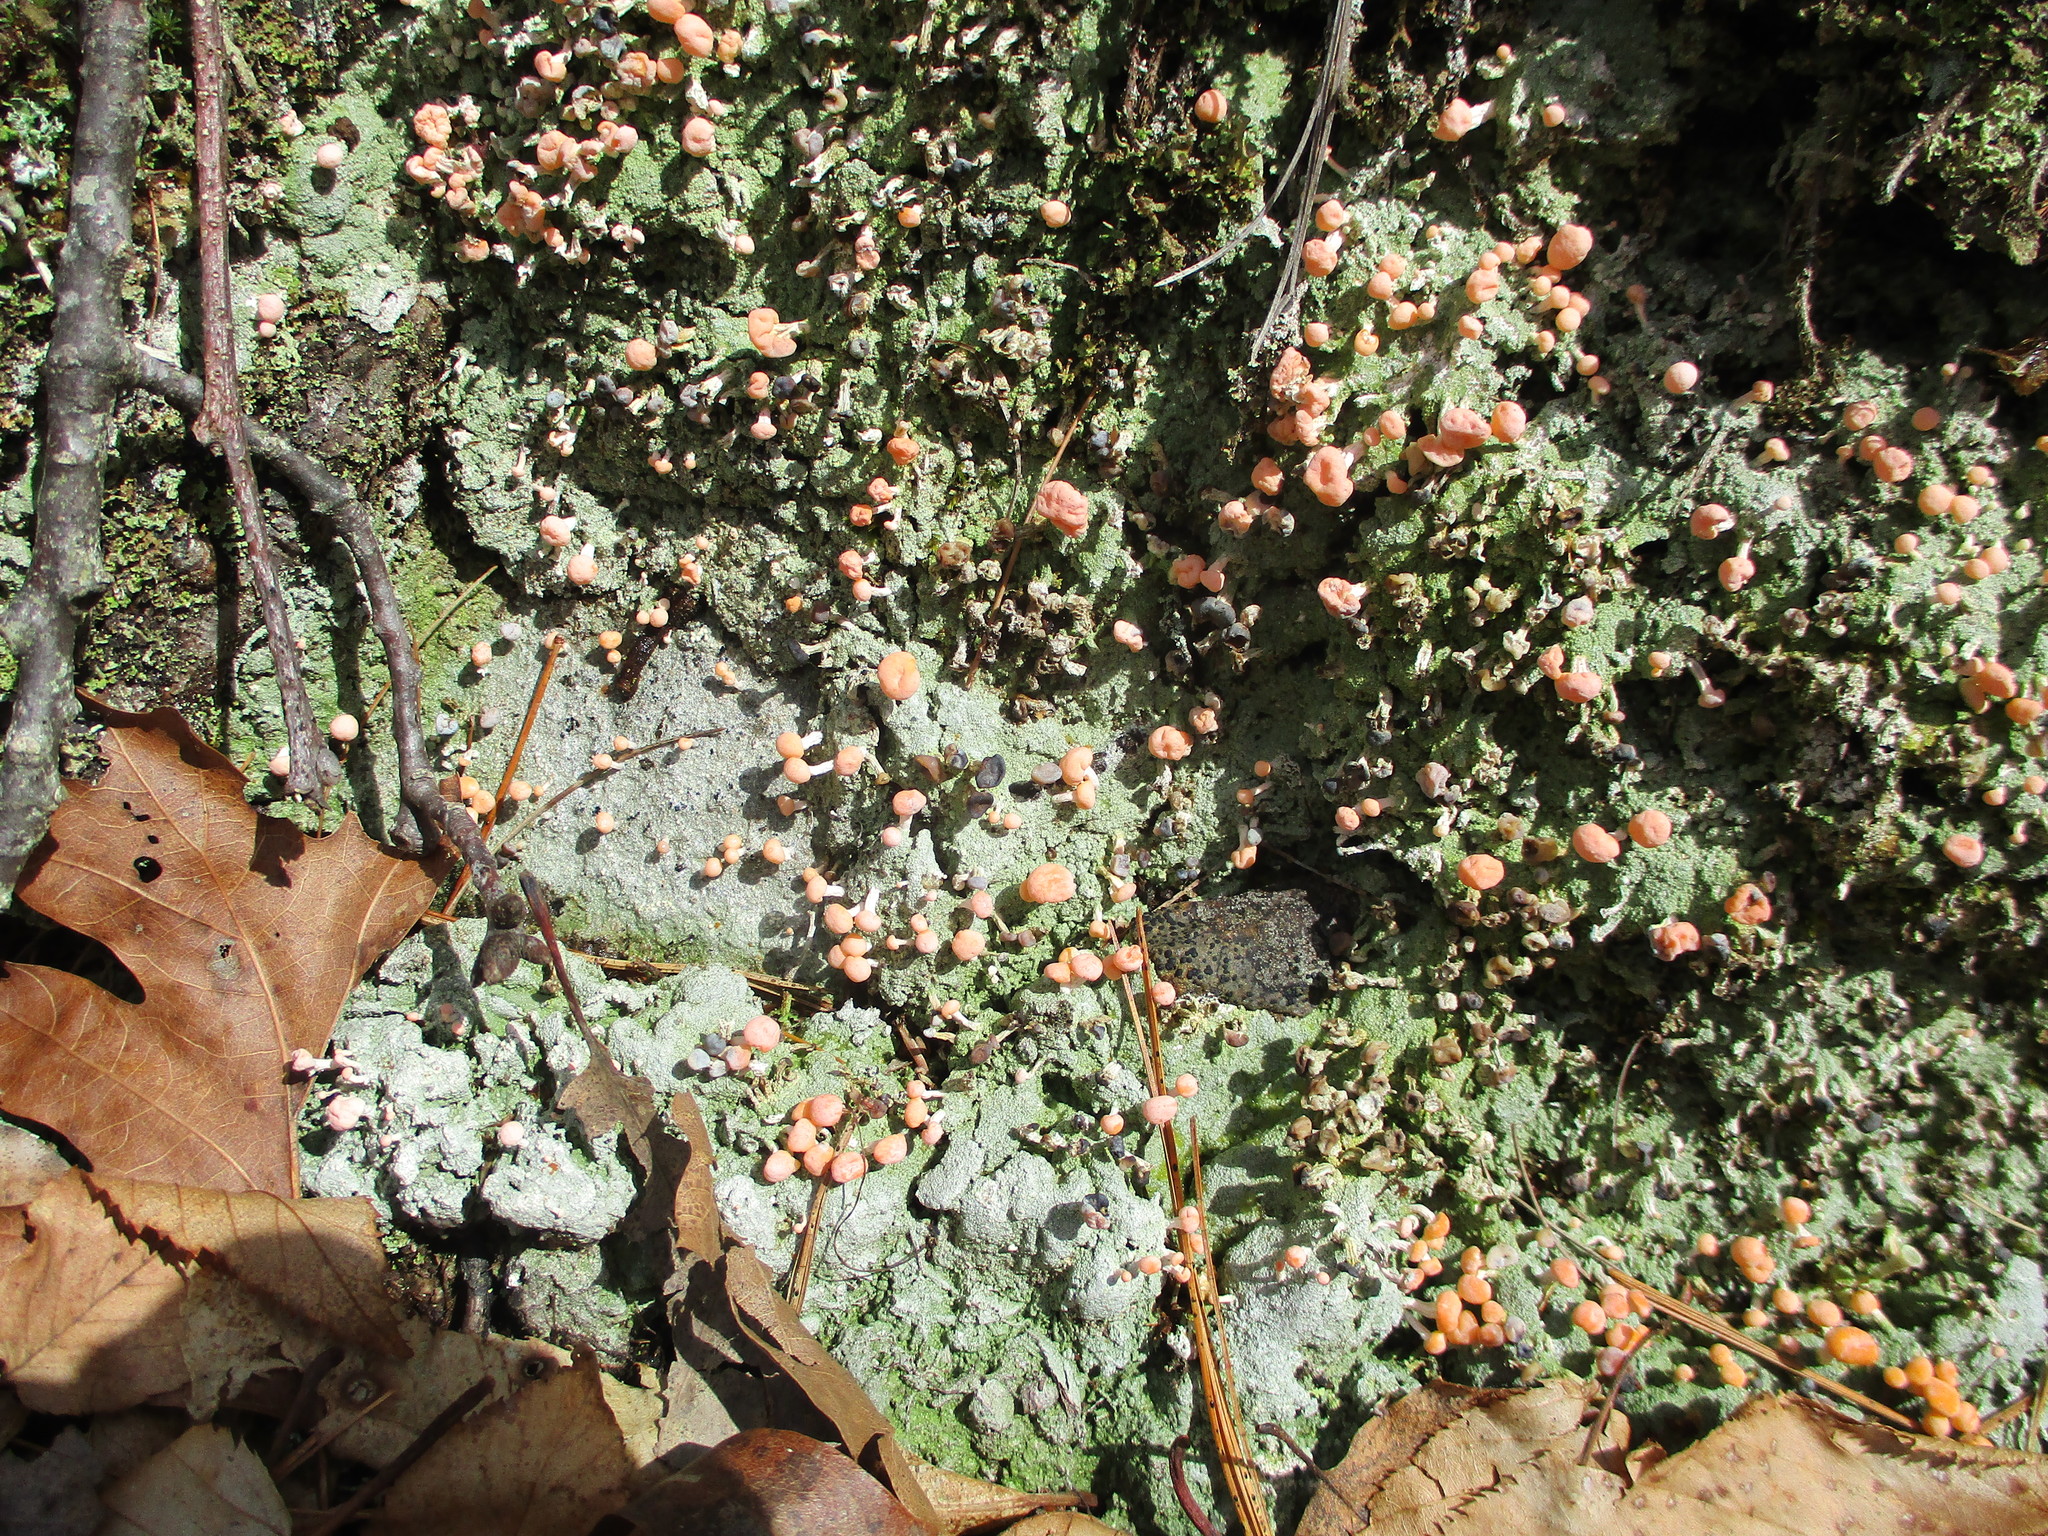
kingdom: Fungi
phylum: Ascomycota
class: Lecanoromycetes
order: Pertusariales
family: Icmadophilaceae
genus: Dibaeis
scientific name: Dibaeis baeomyces
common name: Pink earth lichen
